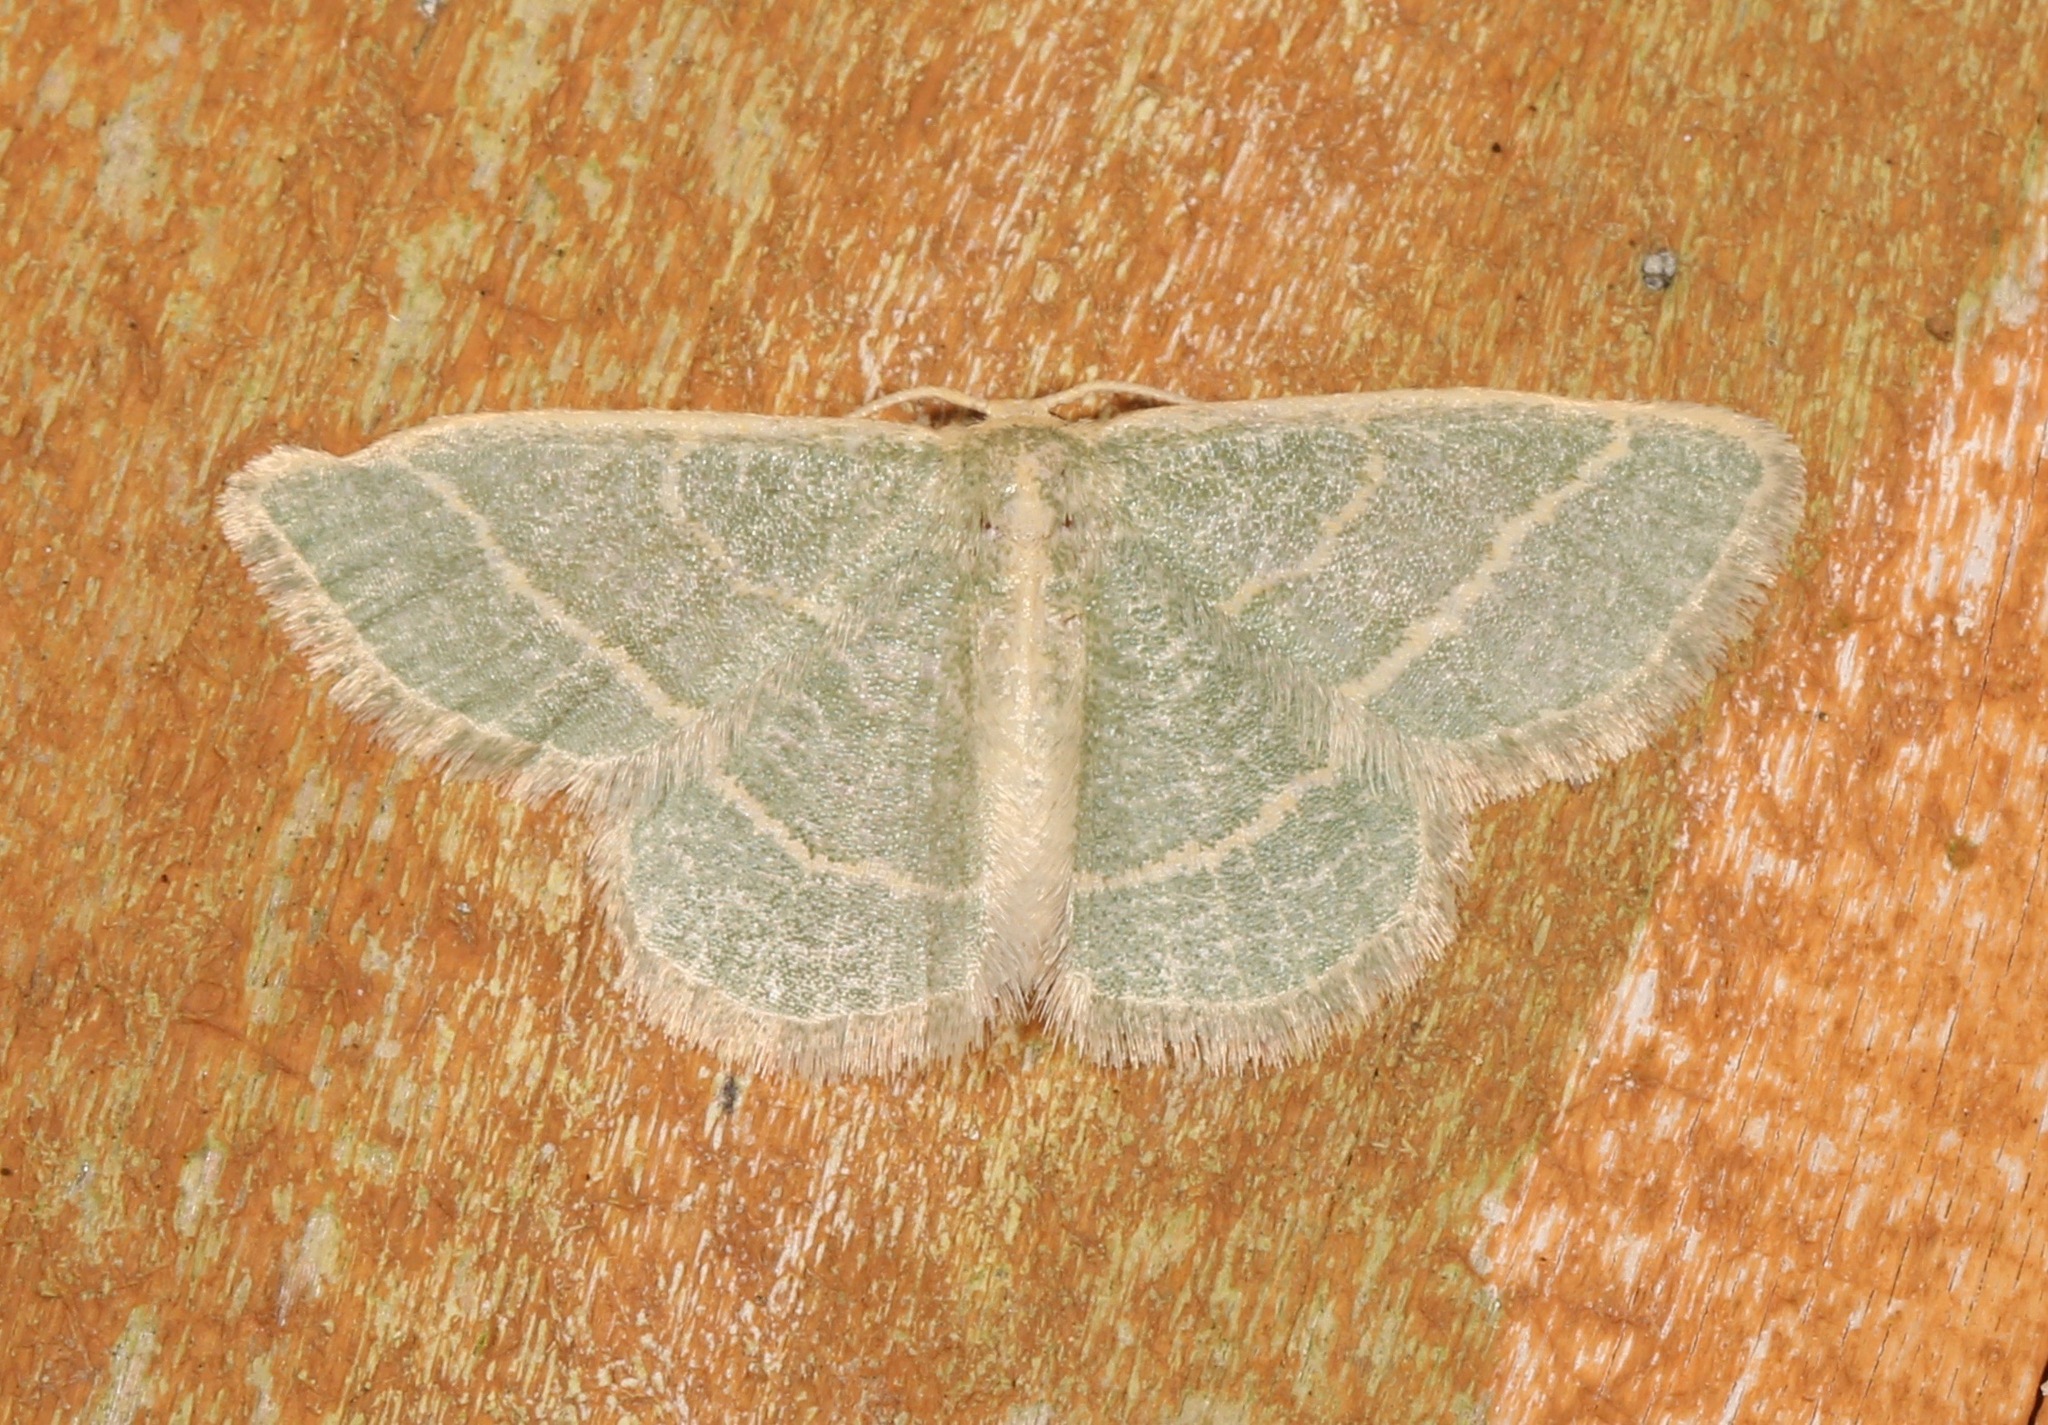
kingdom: Animalia
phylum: Arthropoda
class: Insecta
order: Lepidoptera
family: Geometridae
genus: Chlorochlamys
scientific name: Chlorochlamys chloroleucaria
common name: Blackberry looper
